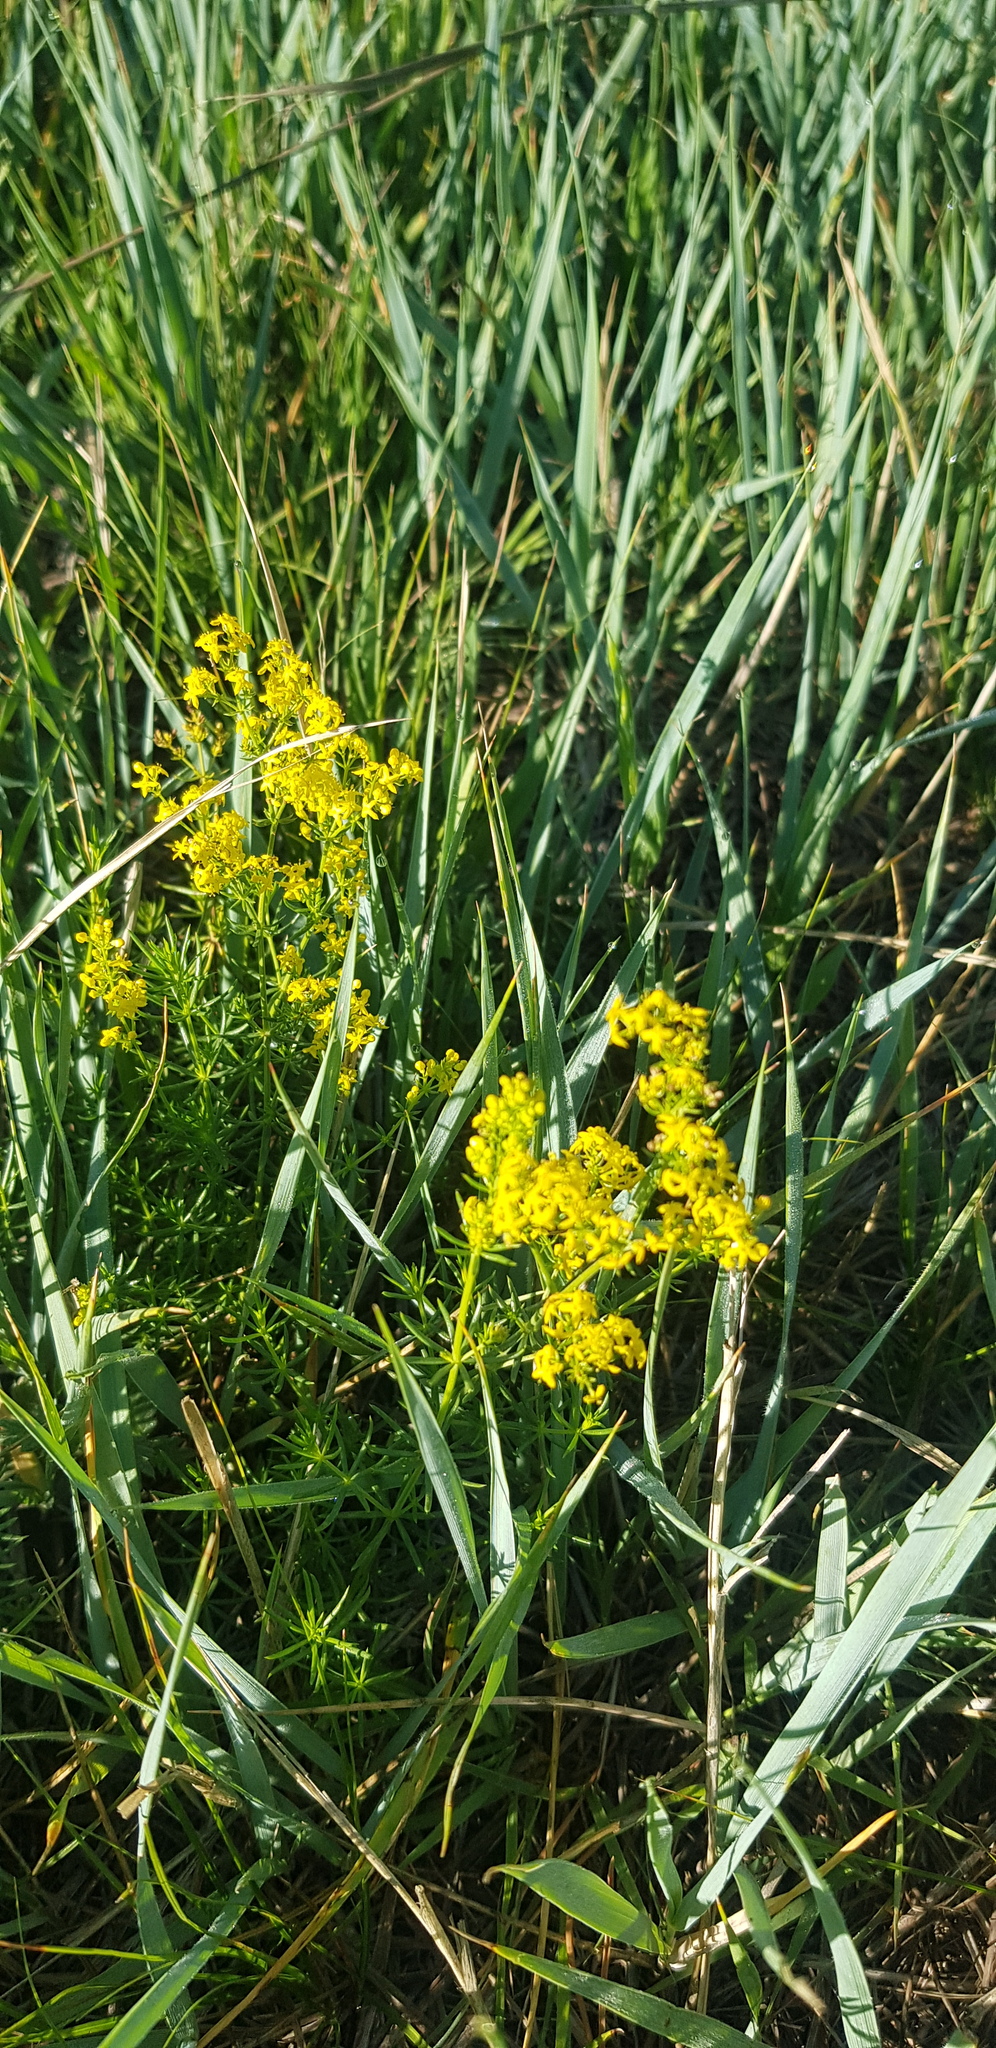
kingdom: Plantae
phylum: Tracheophyta
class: Magnoliopsida
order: Gentianales
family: Rubiaceae
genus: Galium
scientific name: Galium verum
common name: Lady's bedstraw
